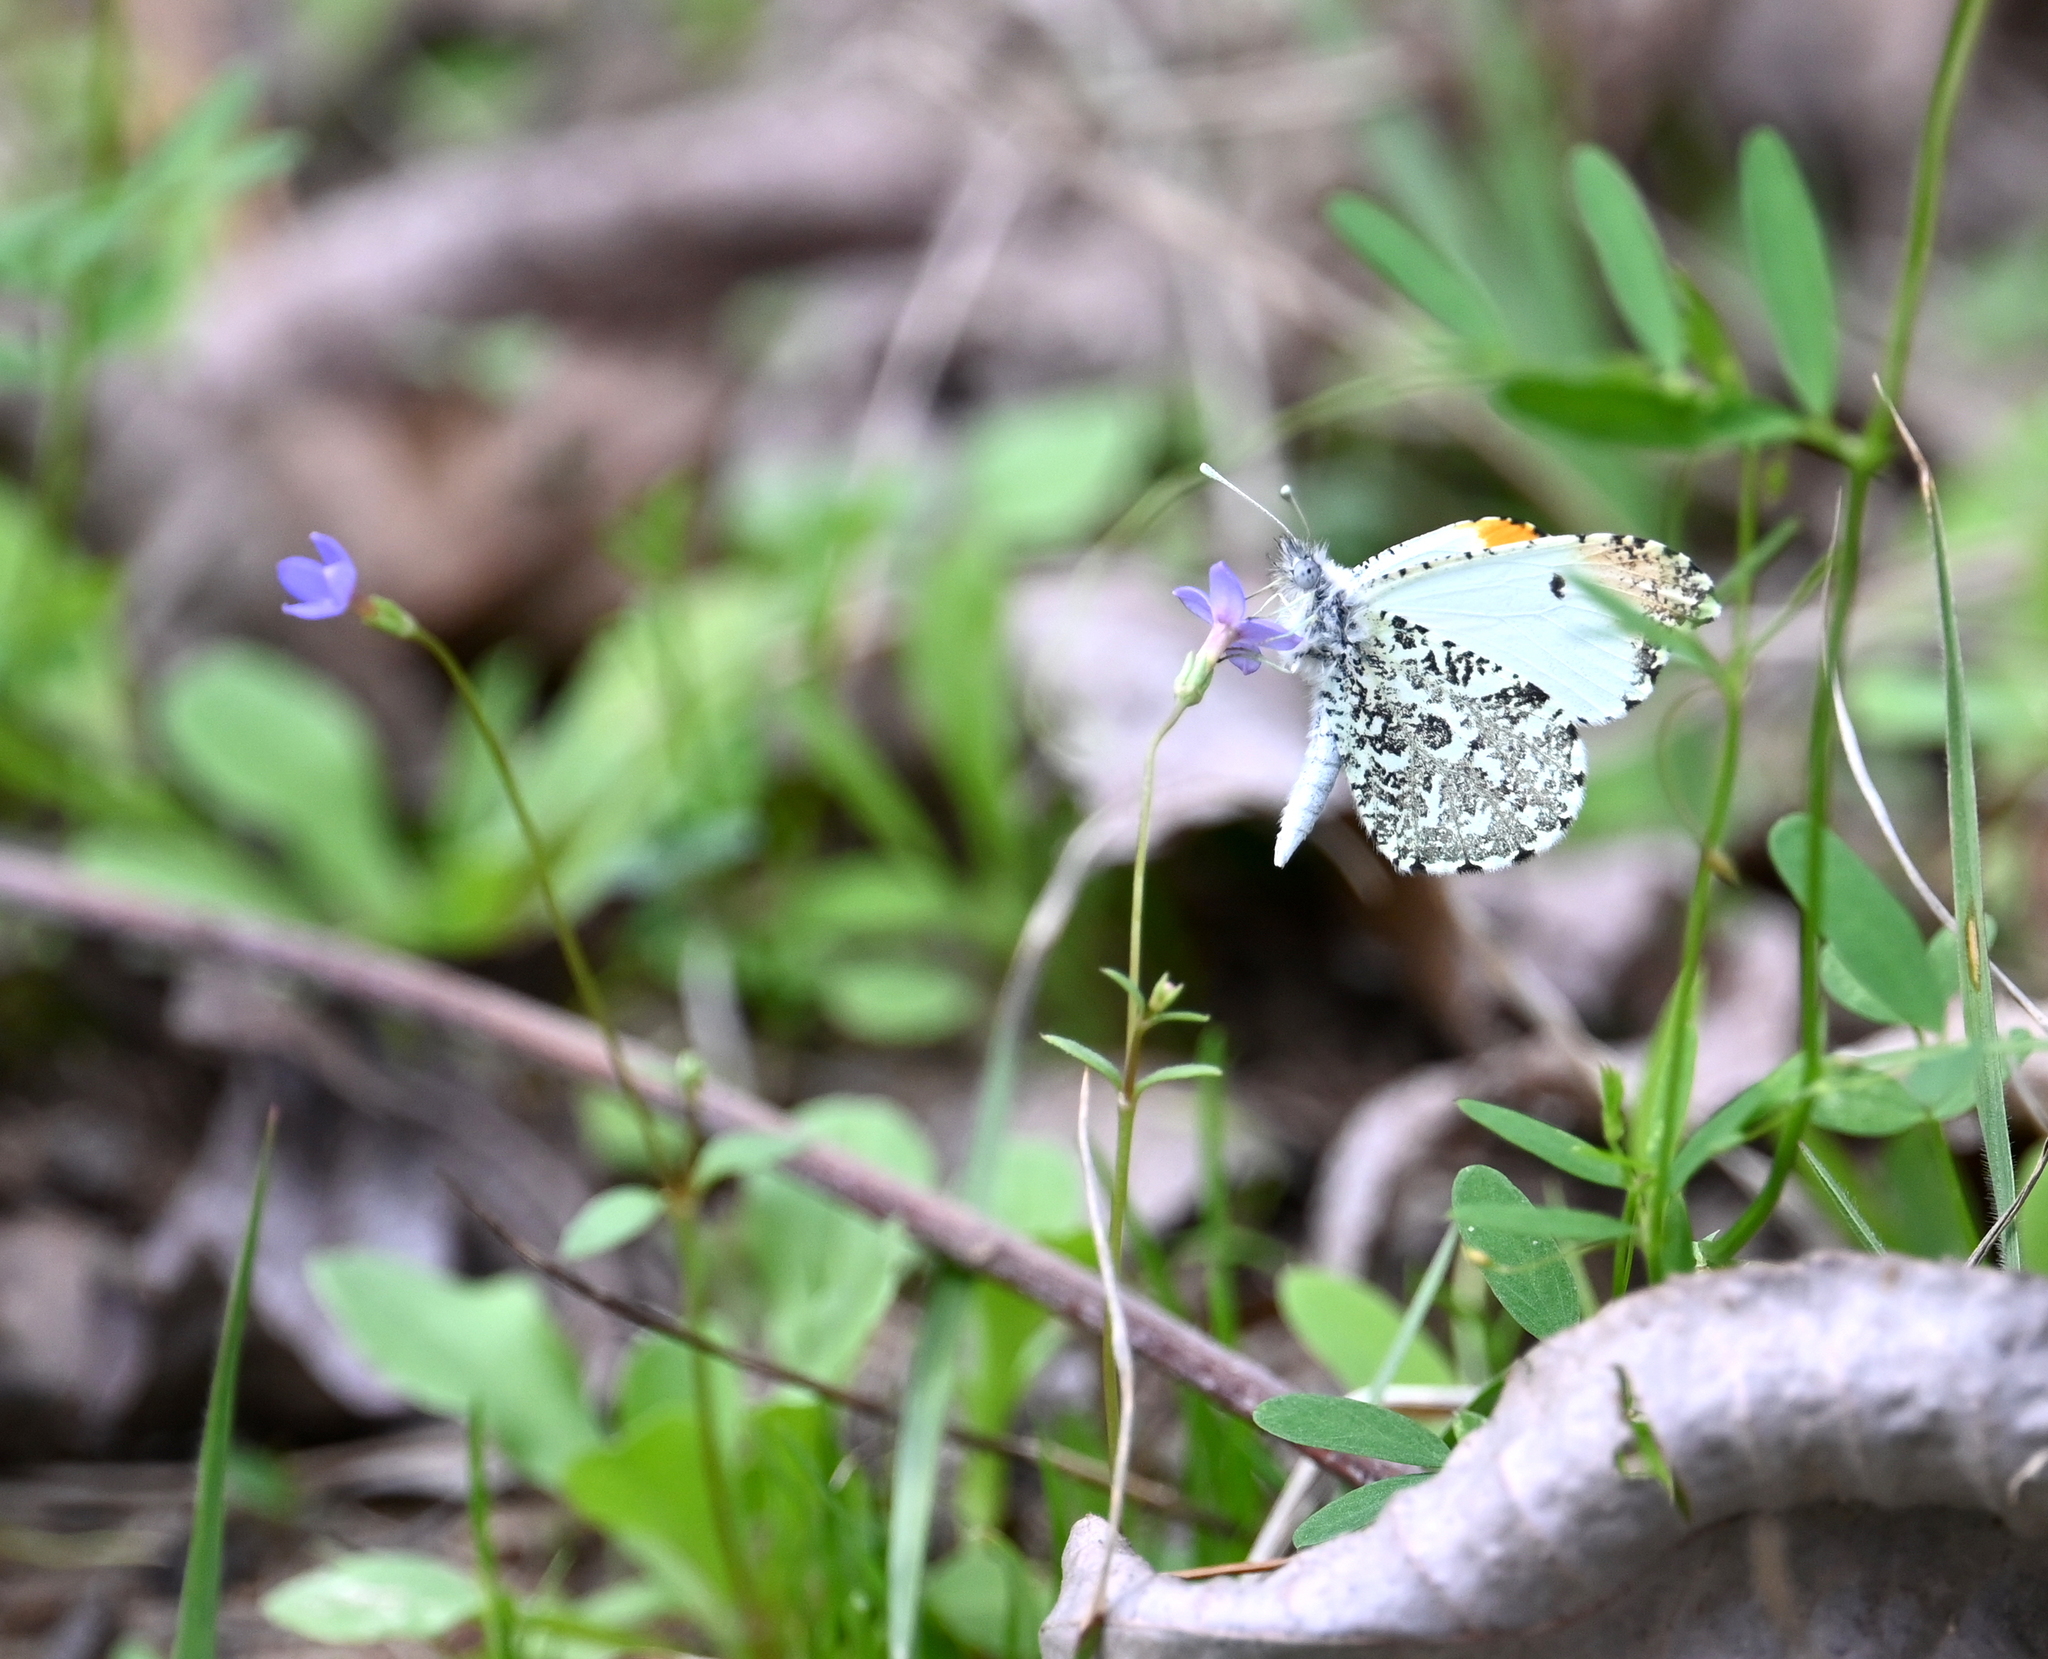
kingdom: Animalia
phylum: Arthropoda
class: Insecta
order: Lepidoptera
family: Pieridae
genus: Anthocharis
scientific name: Anthocharis midea
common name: Falcate orangetip
